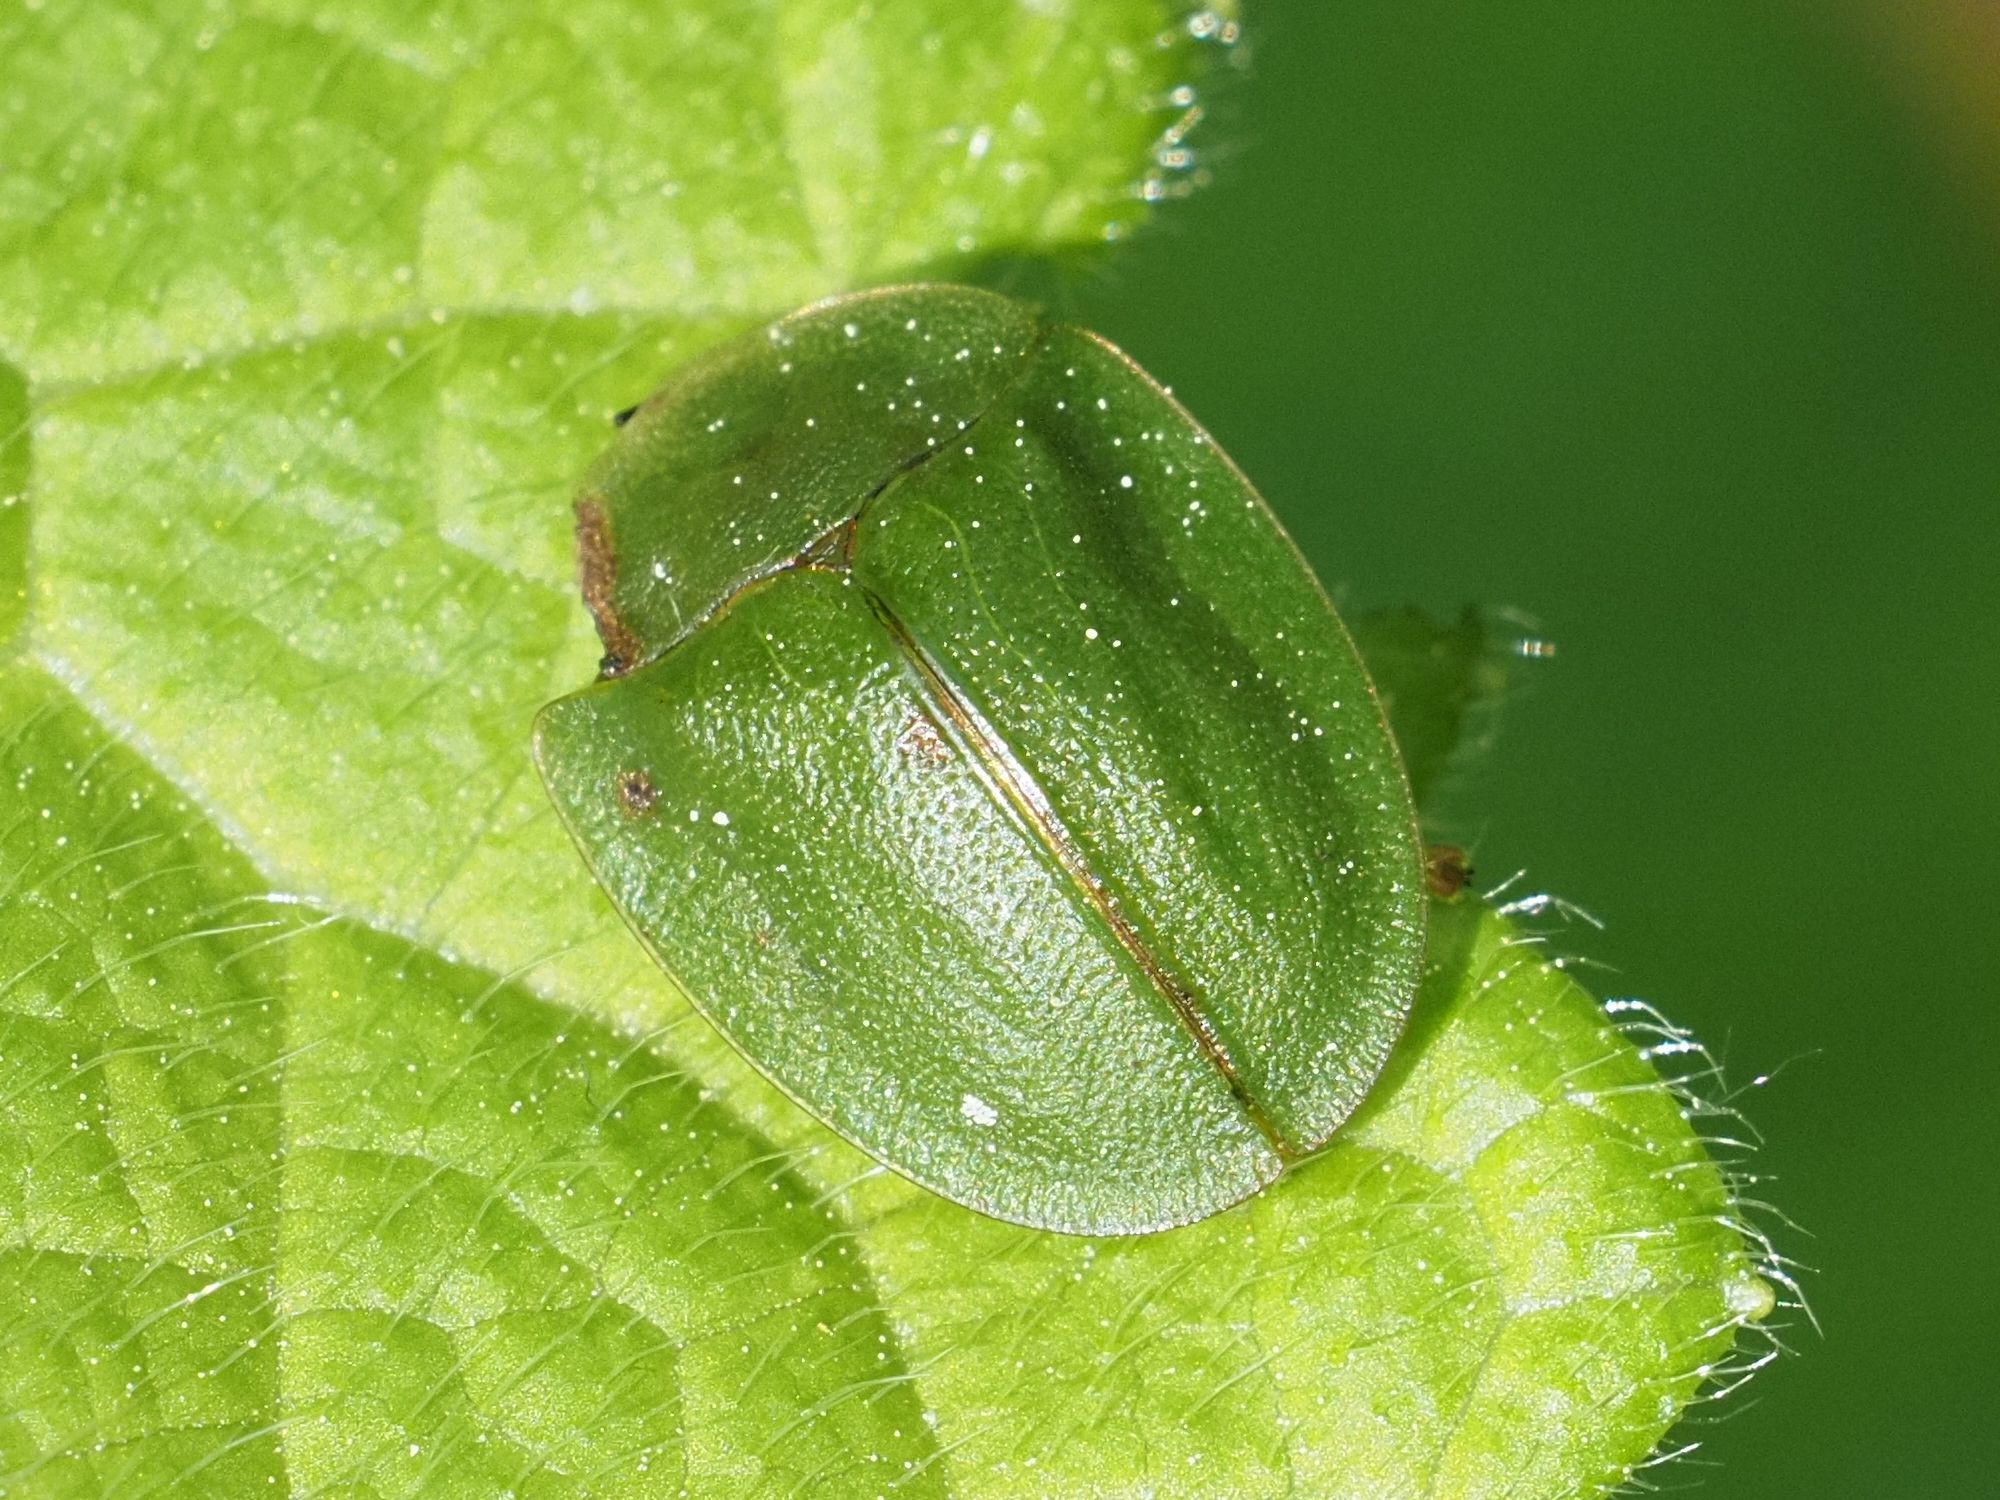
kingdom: Animalia
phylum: Arthropoda
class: Insecta
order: Coleoptera
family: Chrysomelidae
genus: Cassida
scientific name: Cassida viridis
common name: Green tortoise beetle
